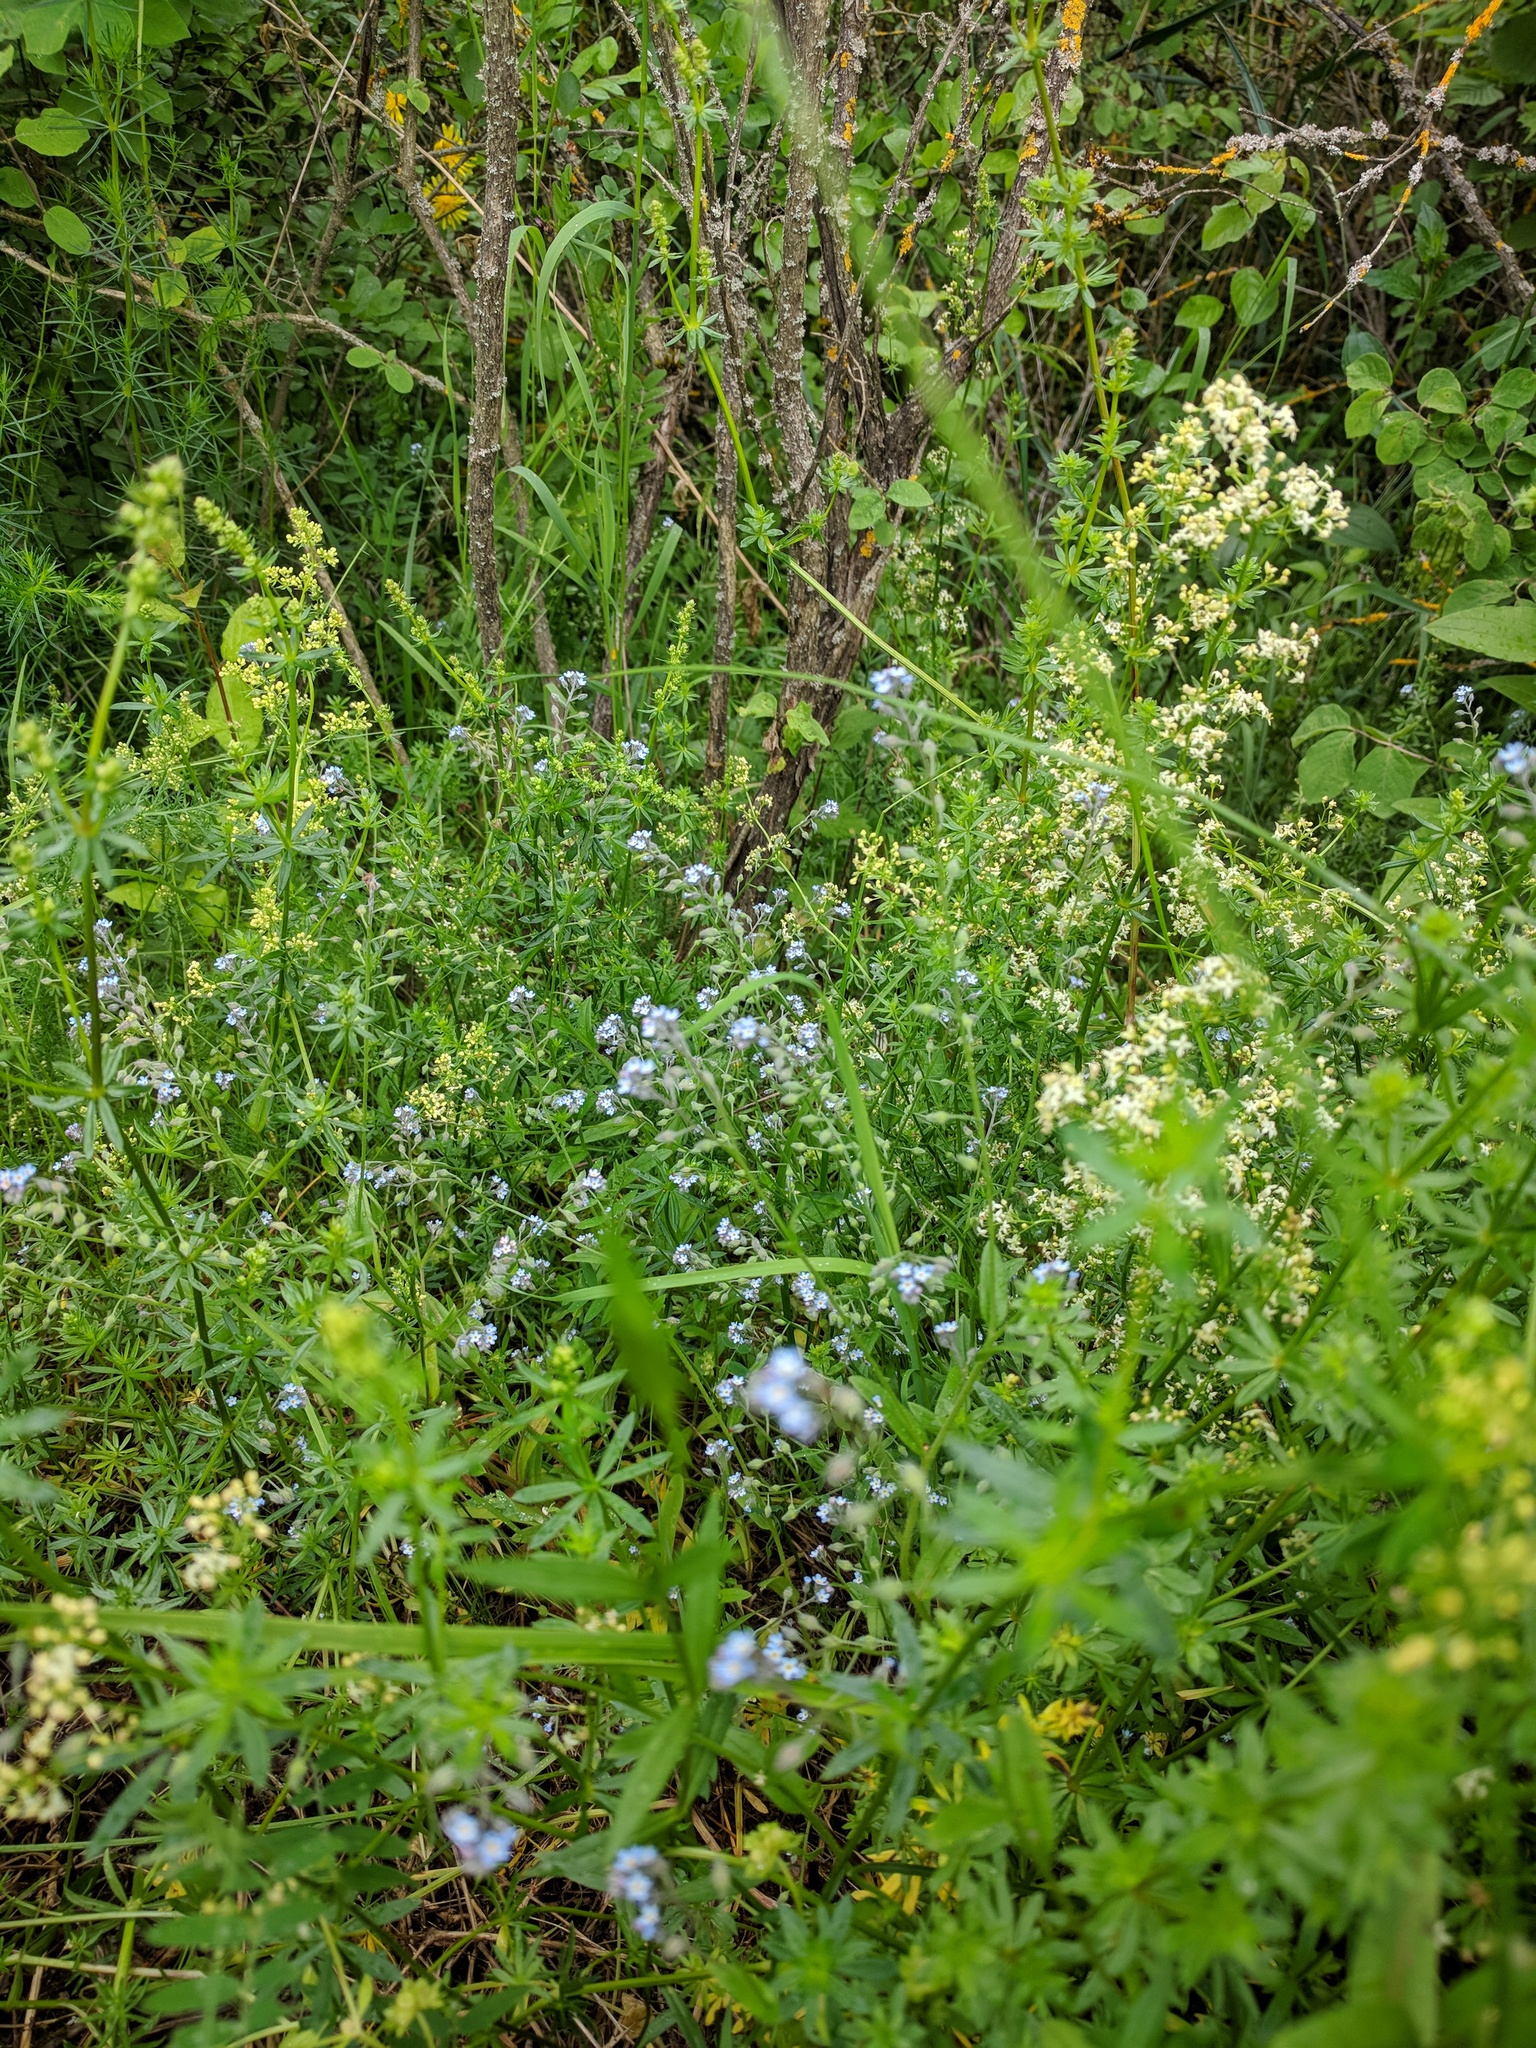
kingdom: Plantae
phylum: Tracheophyta
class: Magnoliopsida
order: Boraginales
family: Boraginaceae
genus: Myosotis
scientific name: Myosotis arvensis
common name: Field forget-me-not
